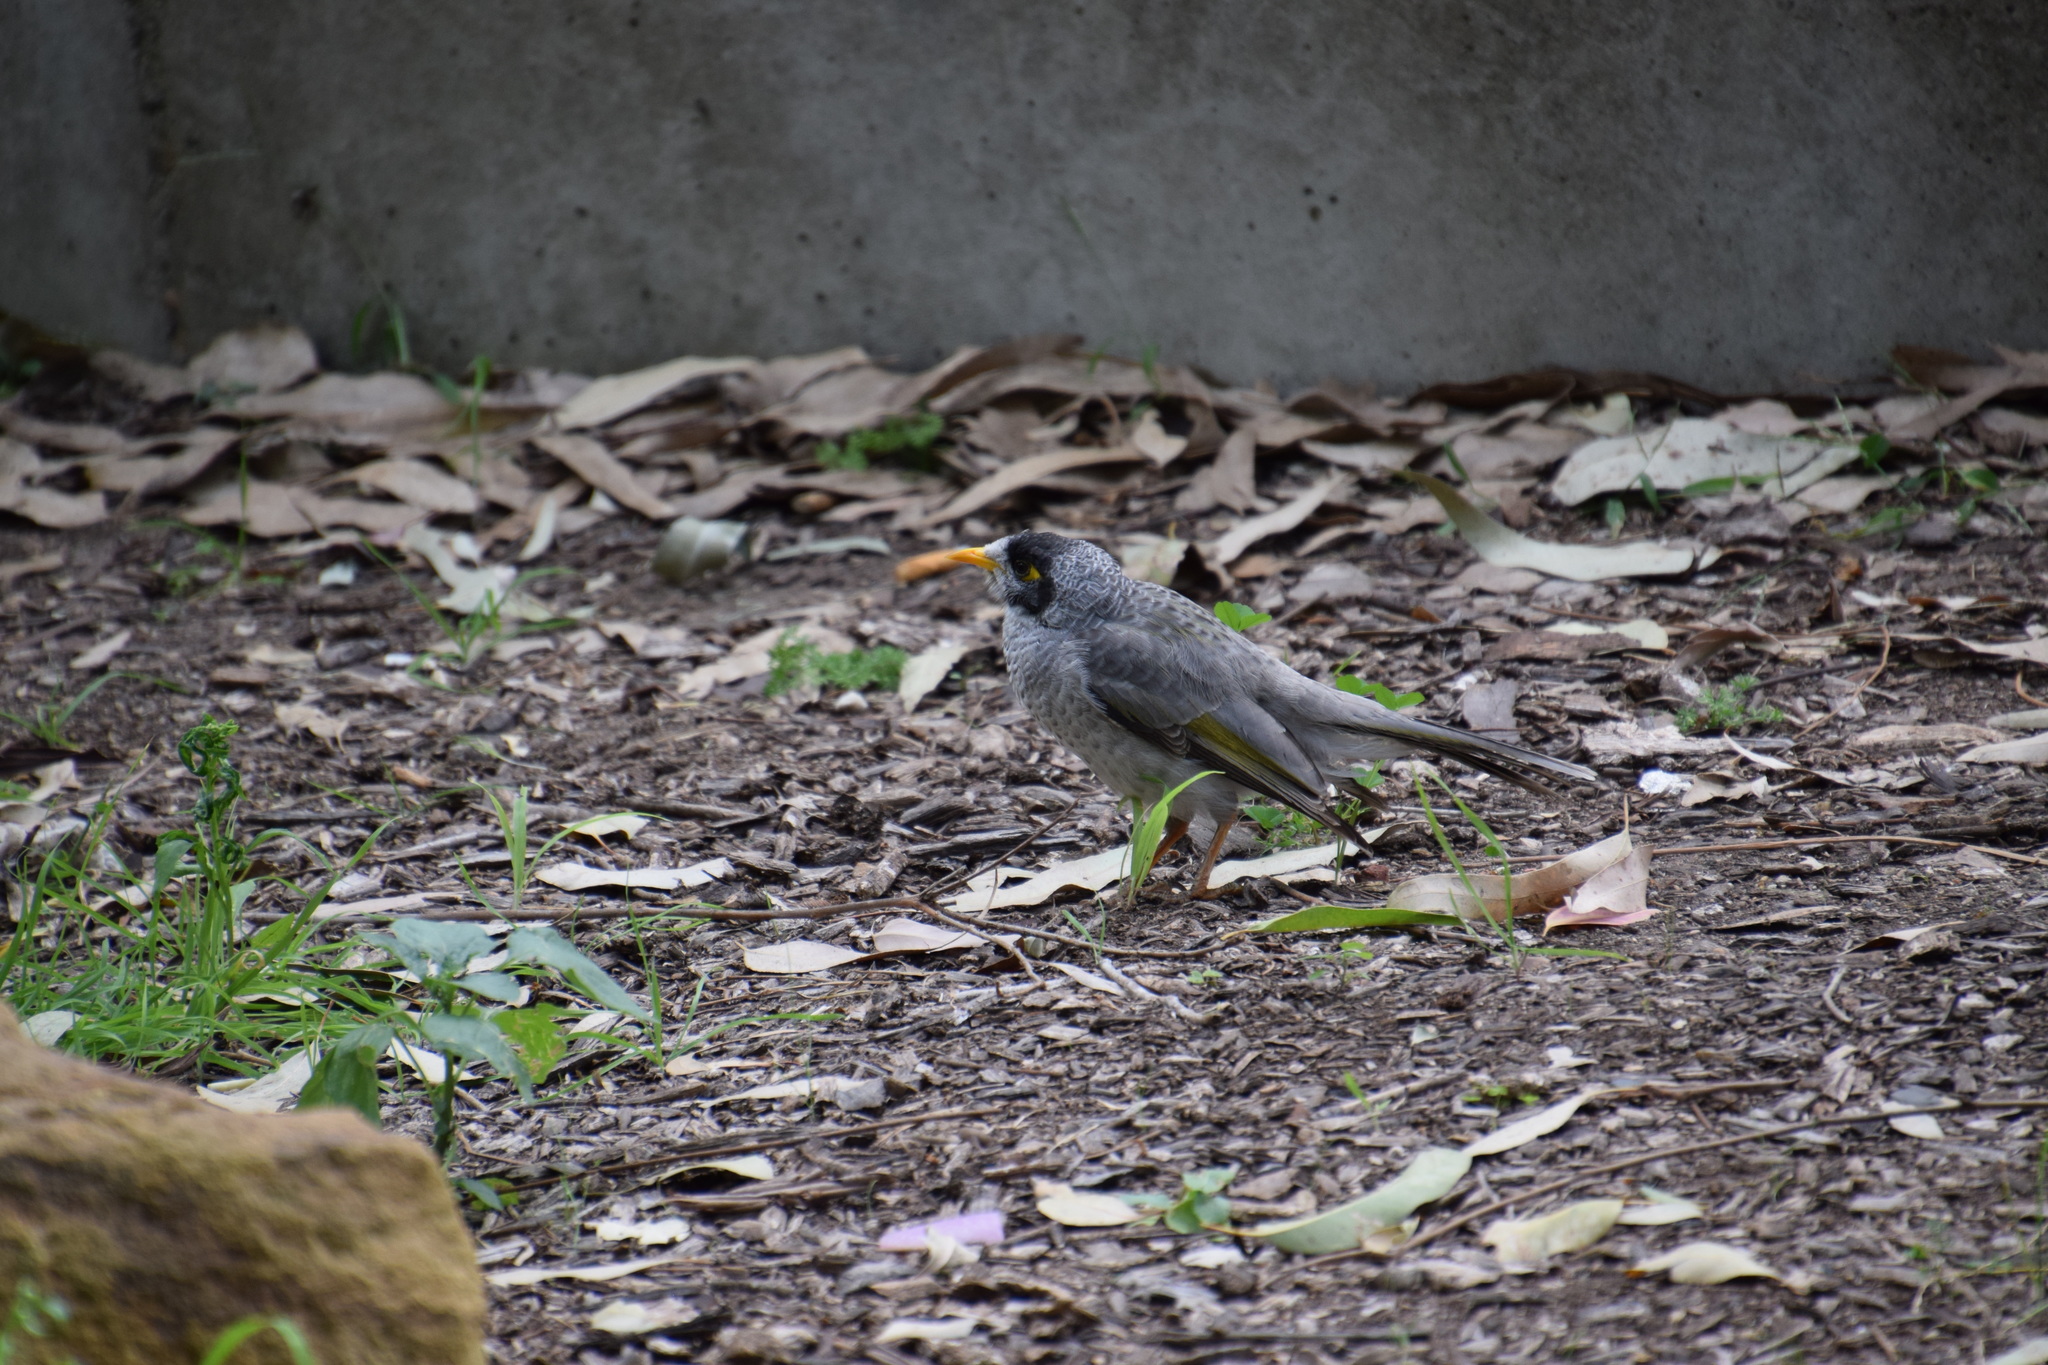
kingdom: Animalia
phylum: Chordata
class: Aves
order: Passeriformes
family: Meliphagidae
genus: Manorina
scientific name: Manorina melanocephala
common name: Noisy miner
